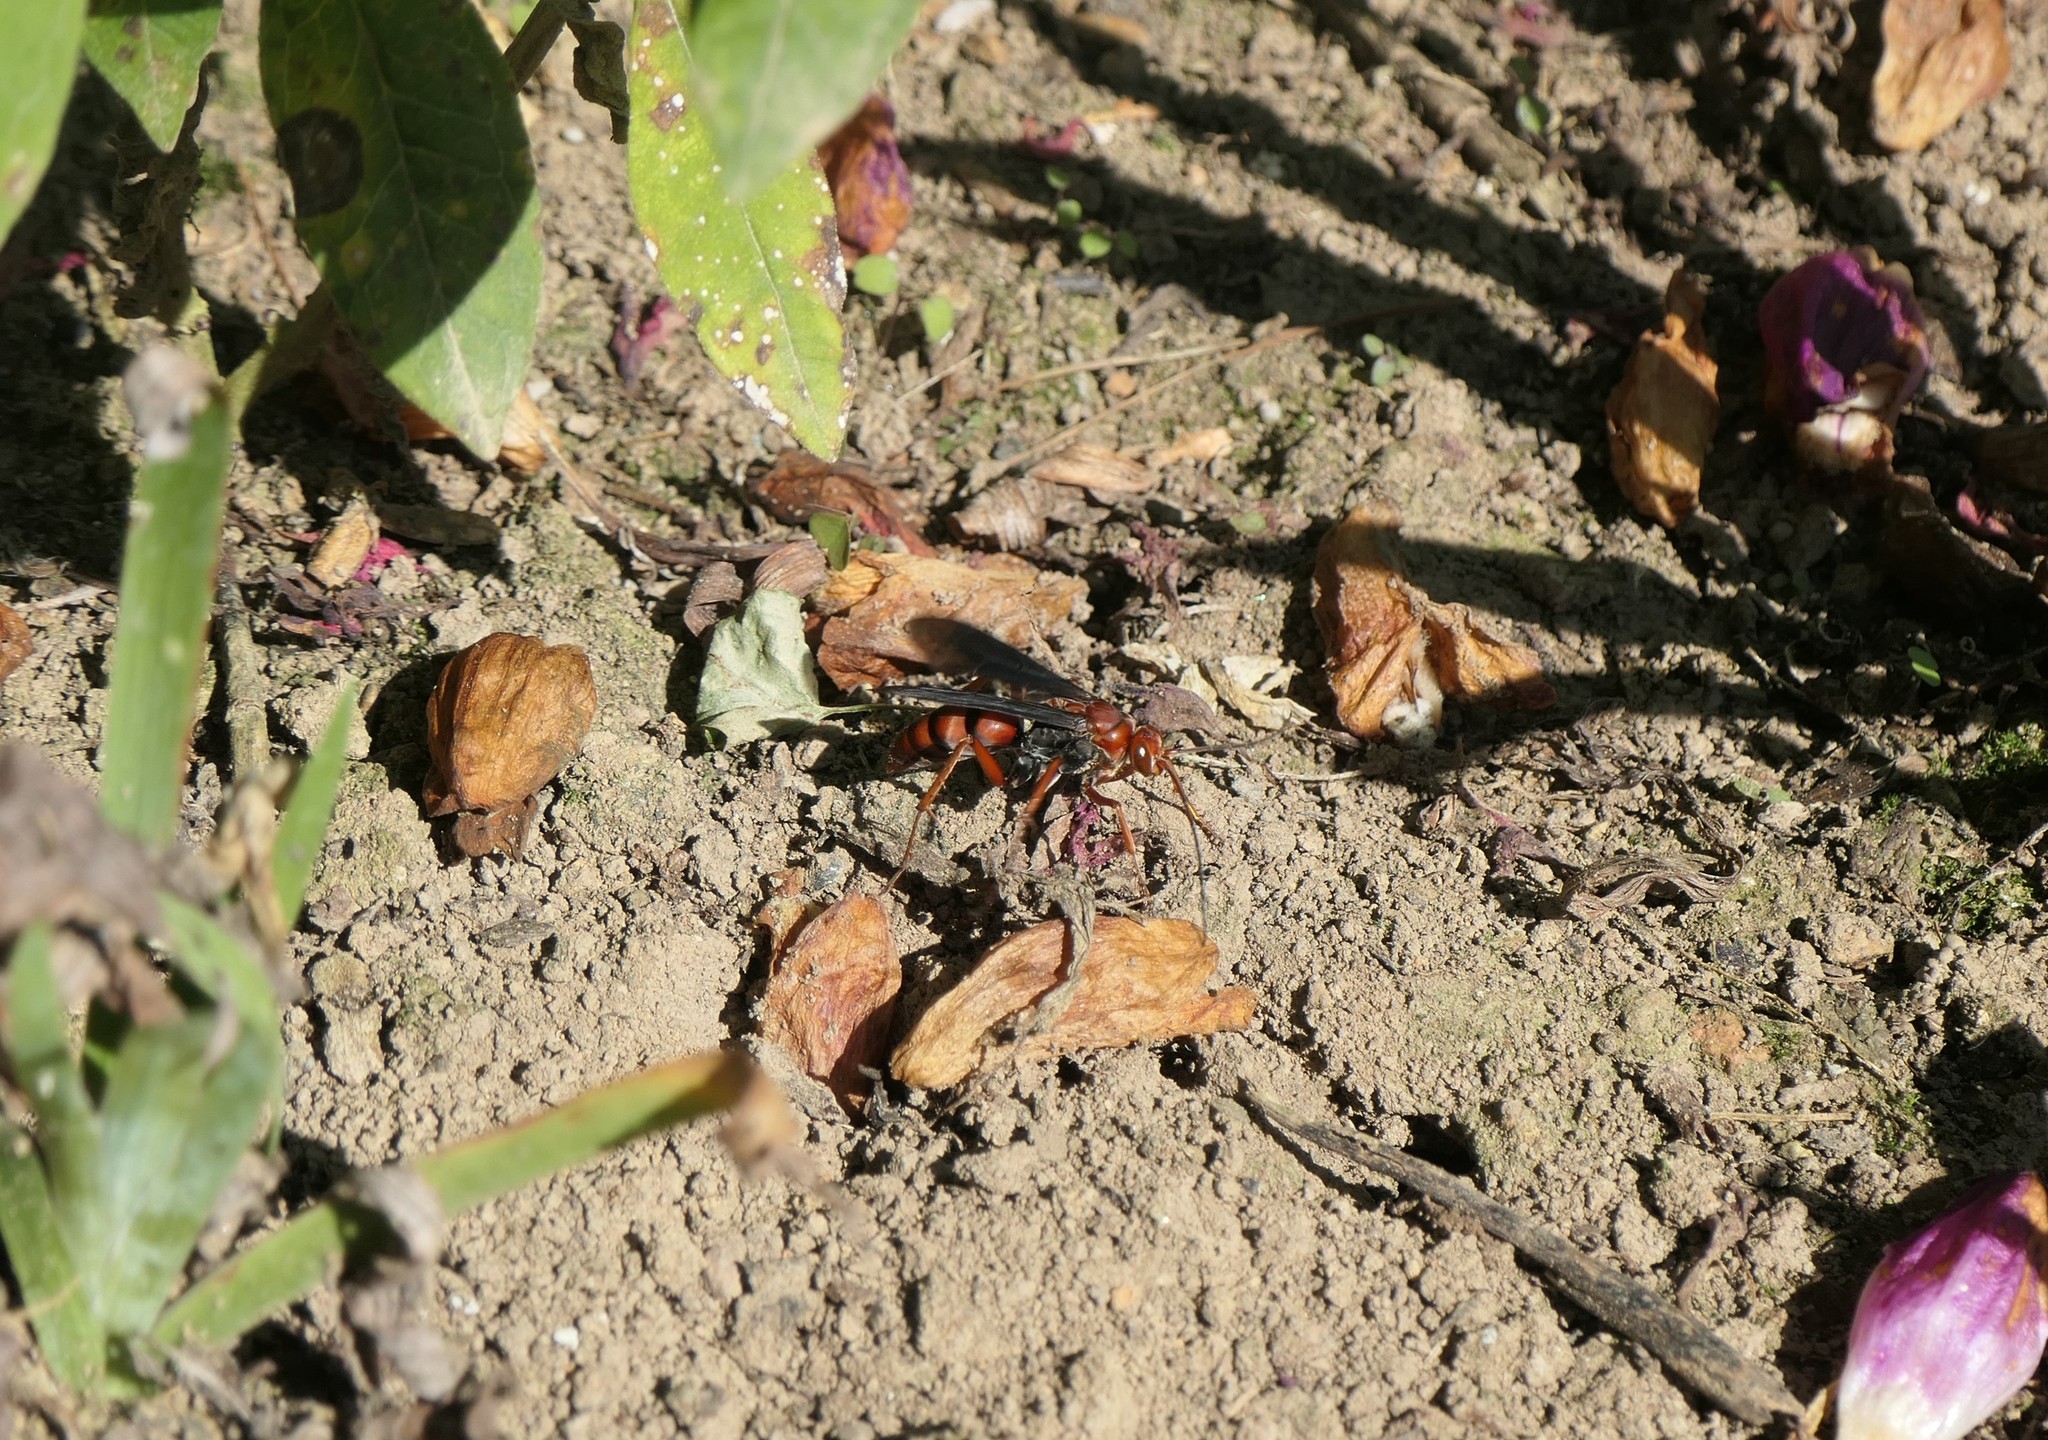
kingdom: Animalia
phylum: Arthropoda
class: Insecta
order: Hymenoptera
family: Pompilidae
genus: Tachypompilus
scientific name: Tachypompilus ferrugineus
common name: Rusty spider wasp
